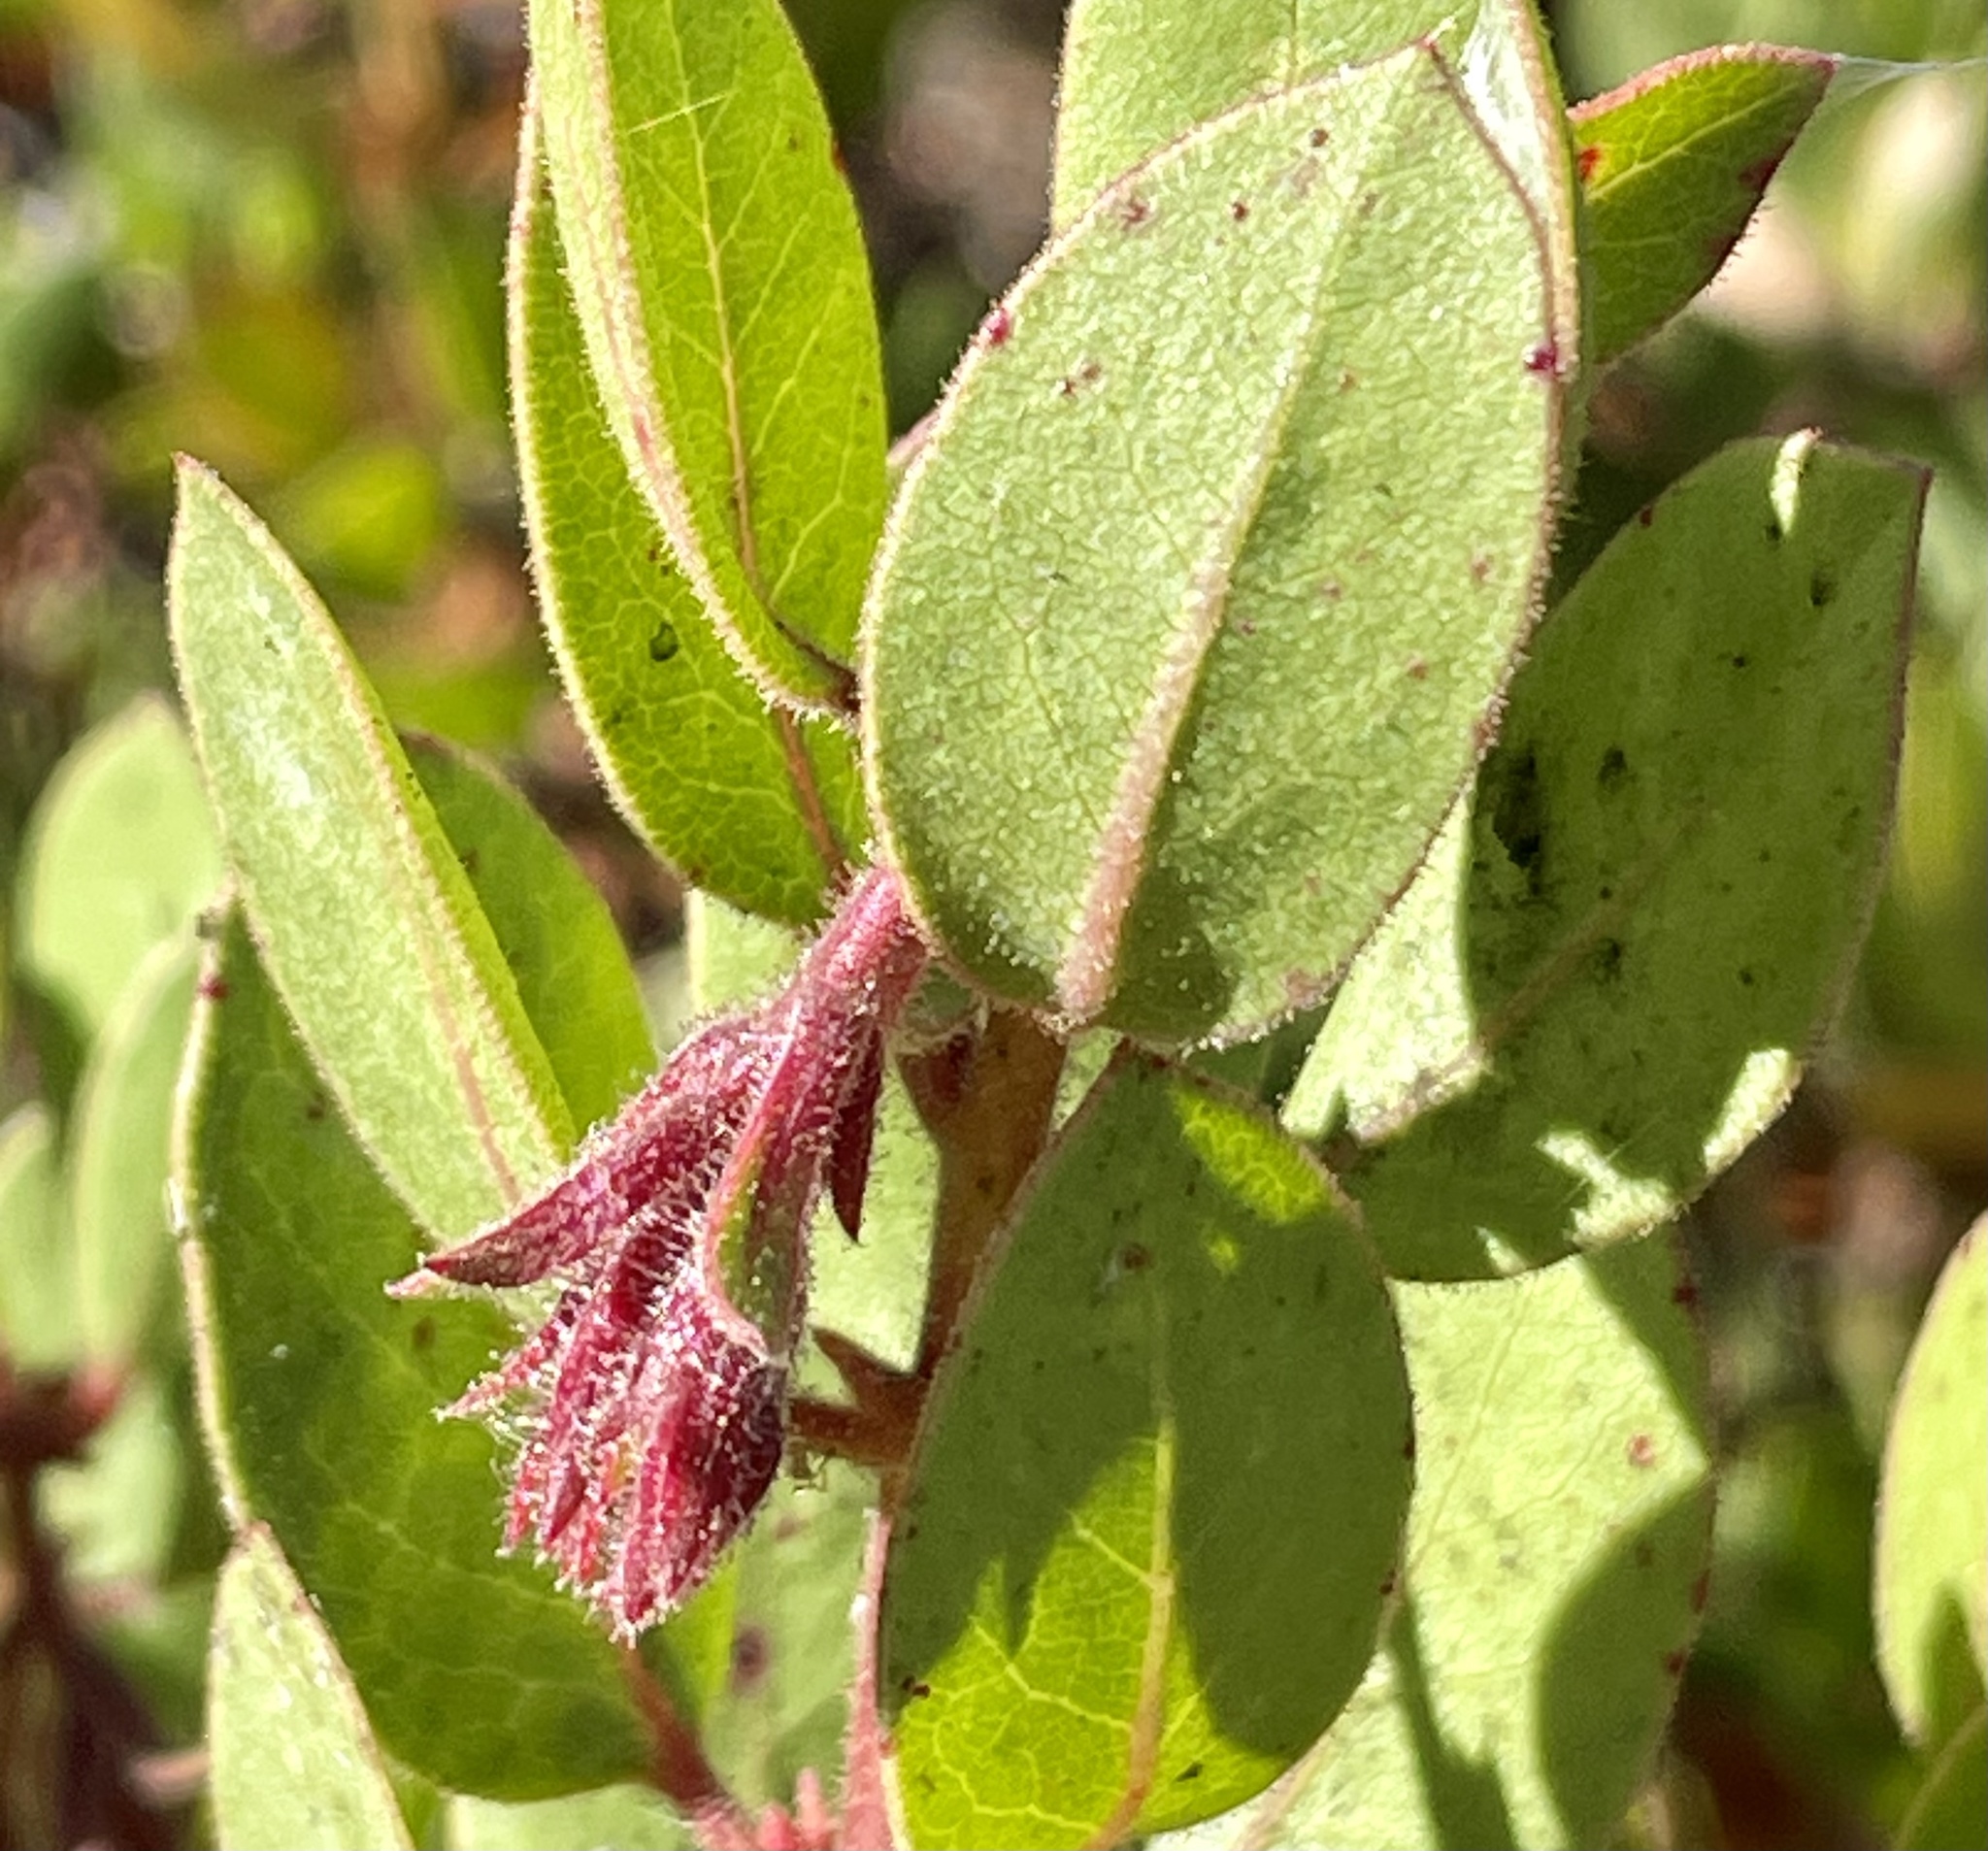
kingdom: Plantae
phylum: Tracheophyta
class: Magnoliopsida
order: Ericales
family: Ericaceae
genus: Arctostaphylos
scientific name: Arctostaphylos montereyensis
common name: Monterey manzanita
